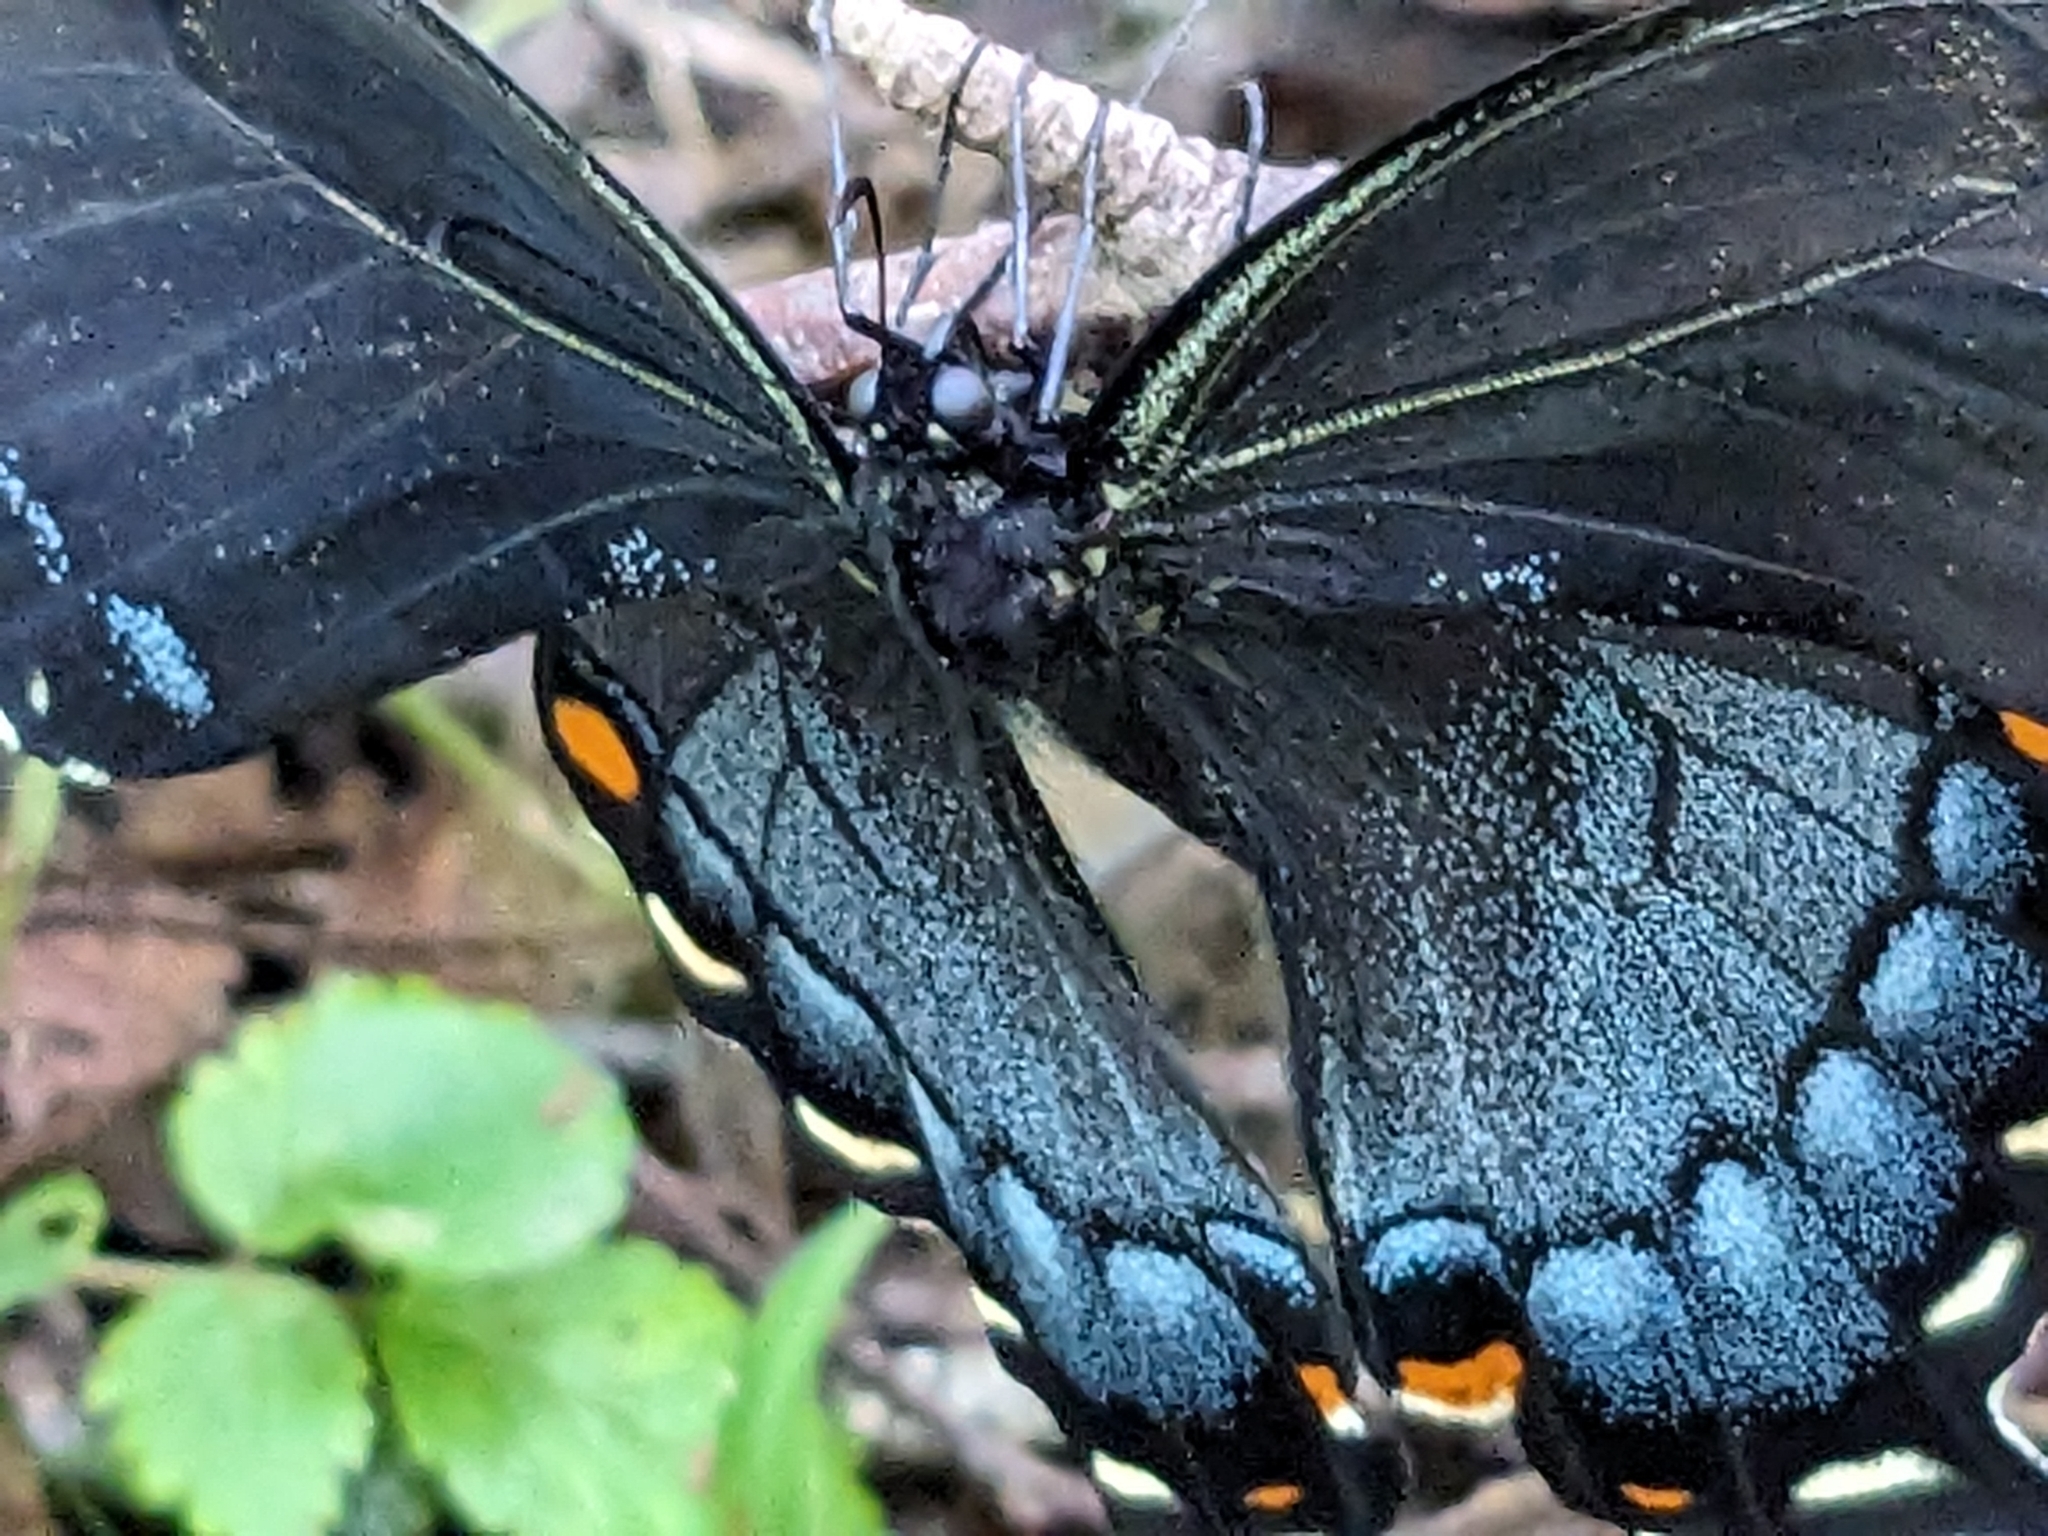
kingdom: Animalia
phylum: Arthropoda
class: Insecta
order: Lepidoptera
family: Papilionidae
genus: Papilio
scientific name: Papilio glaucus
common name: Tiger swallowtail
